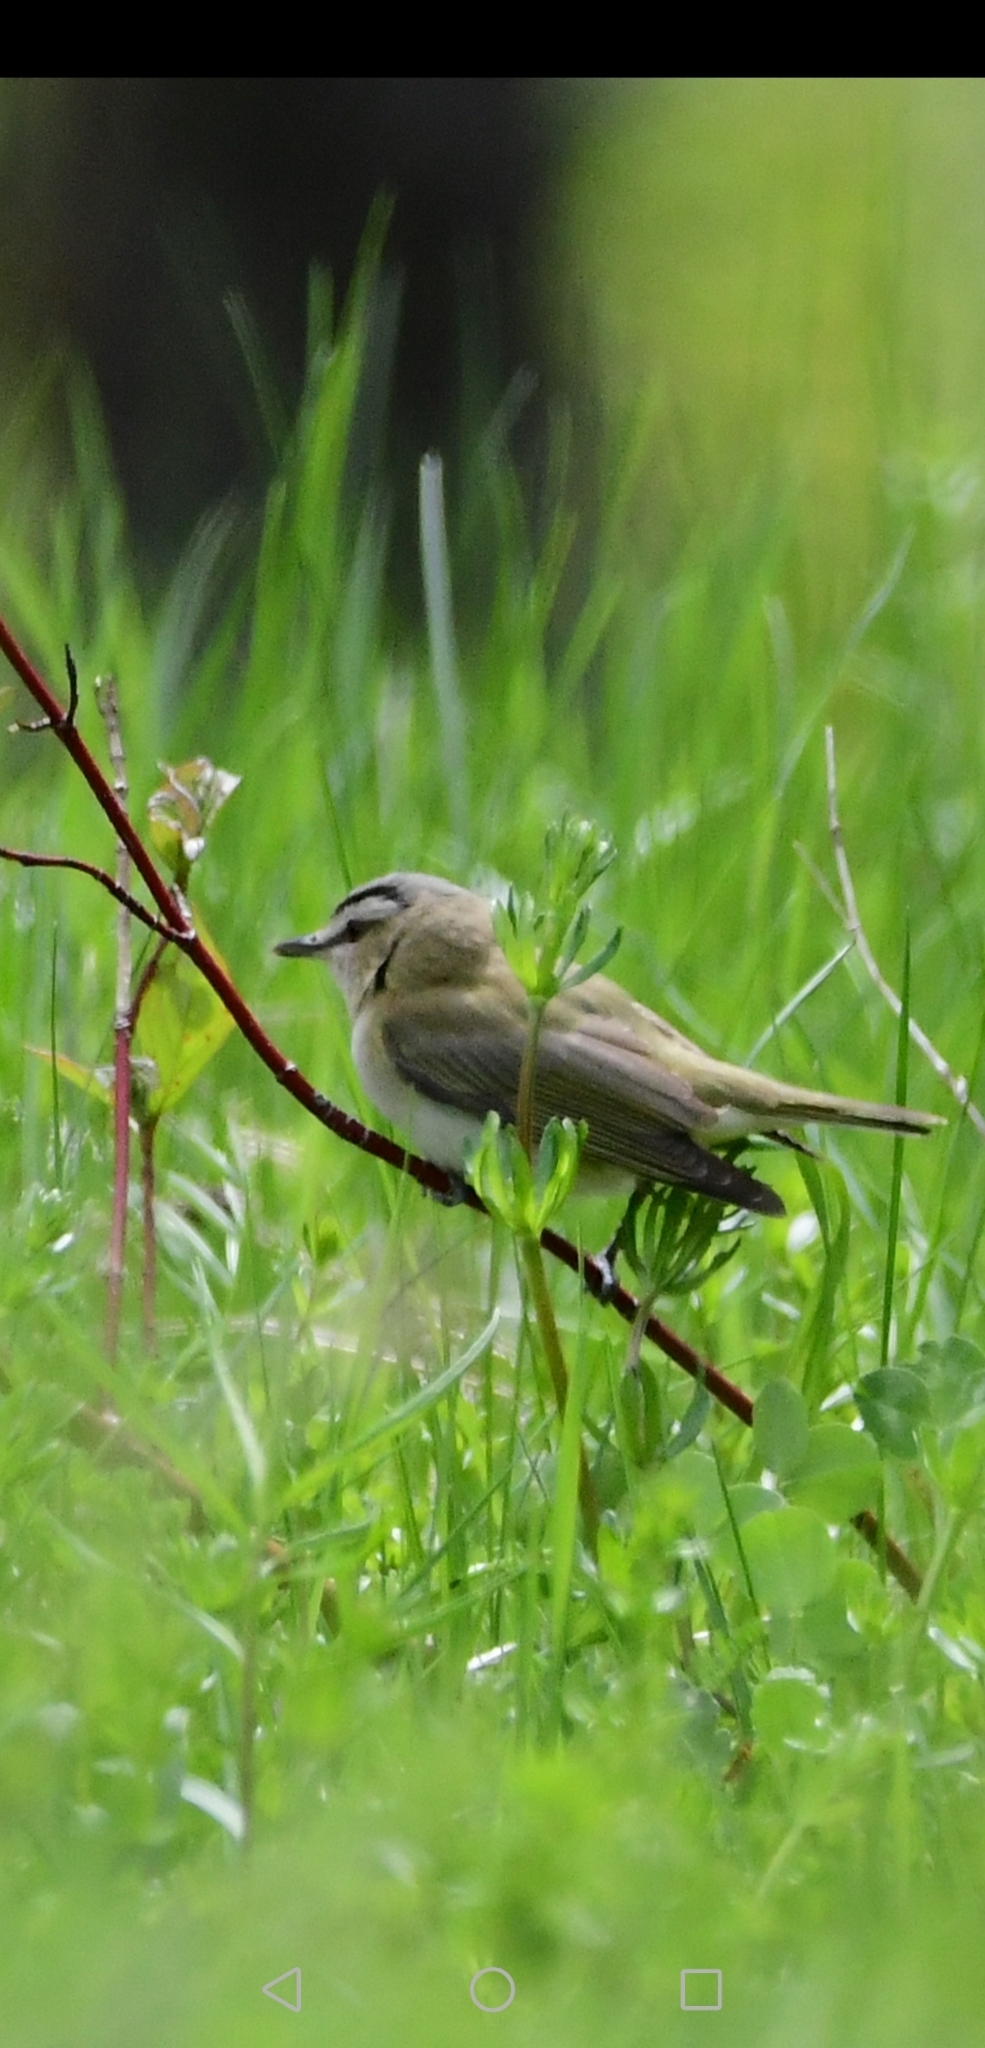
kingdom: Animalia
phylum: Chordata
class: Aves
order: Passeriformes
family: Vireonidae
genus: Vireo
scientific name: Vireo olivaceus
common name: Red-eyed vireo
